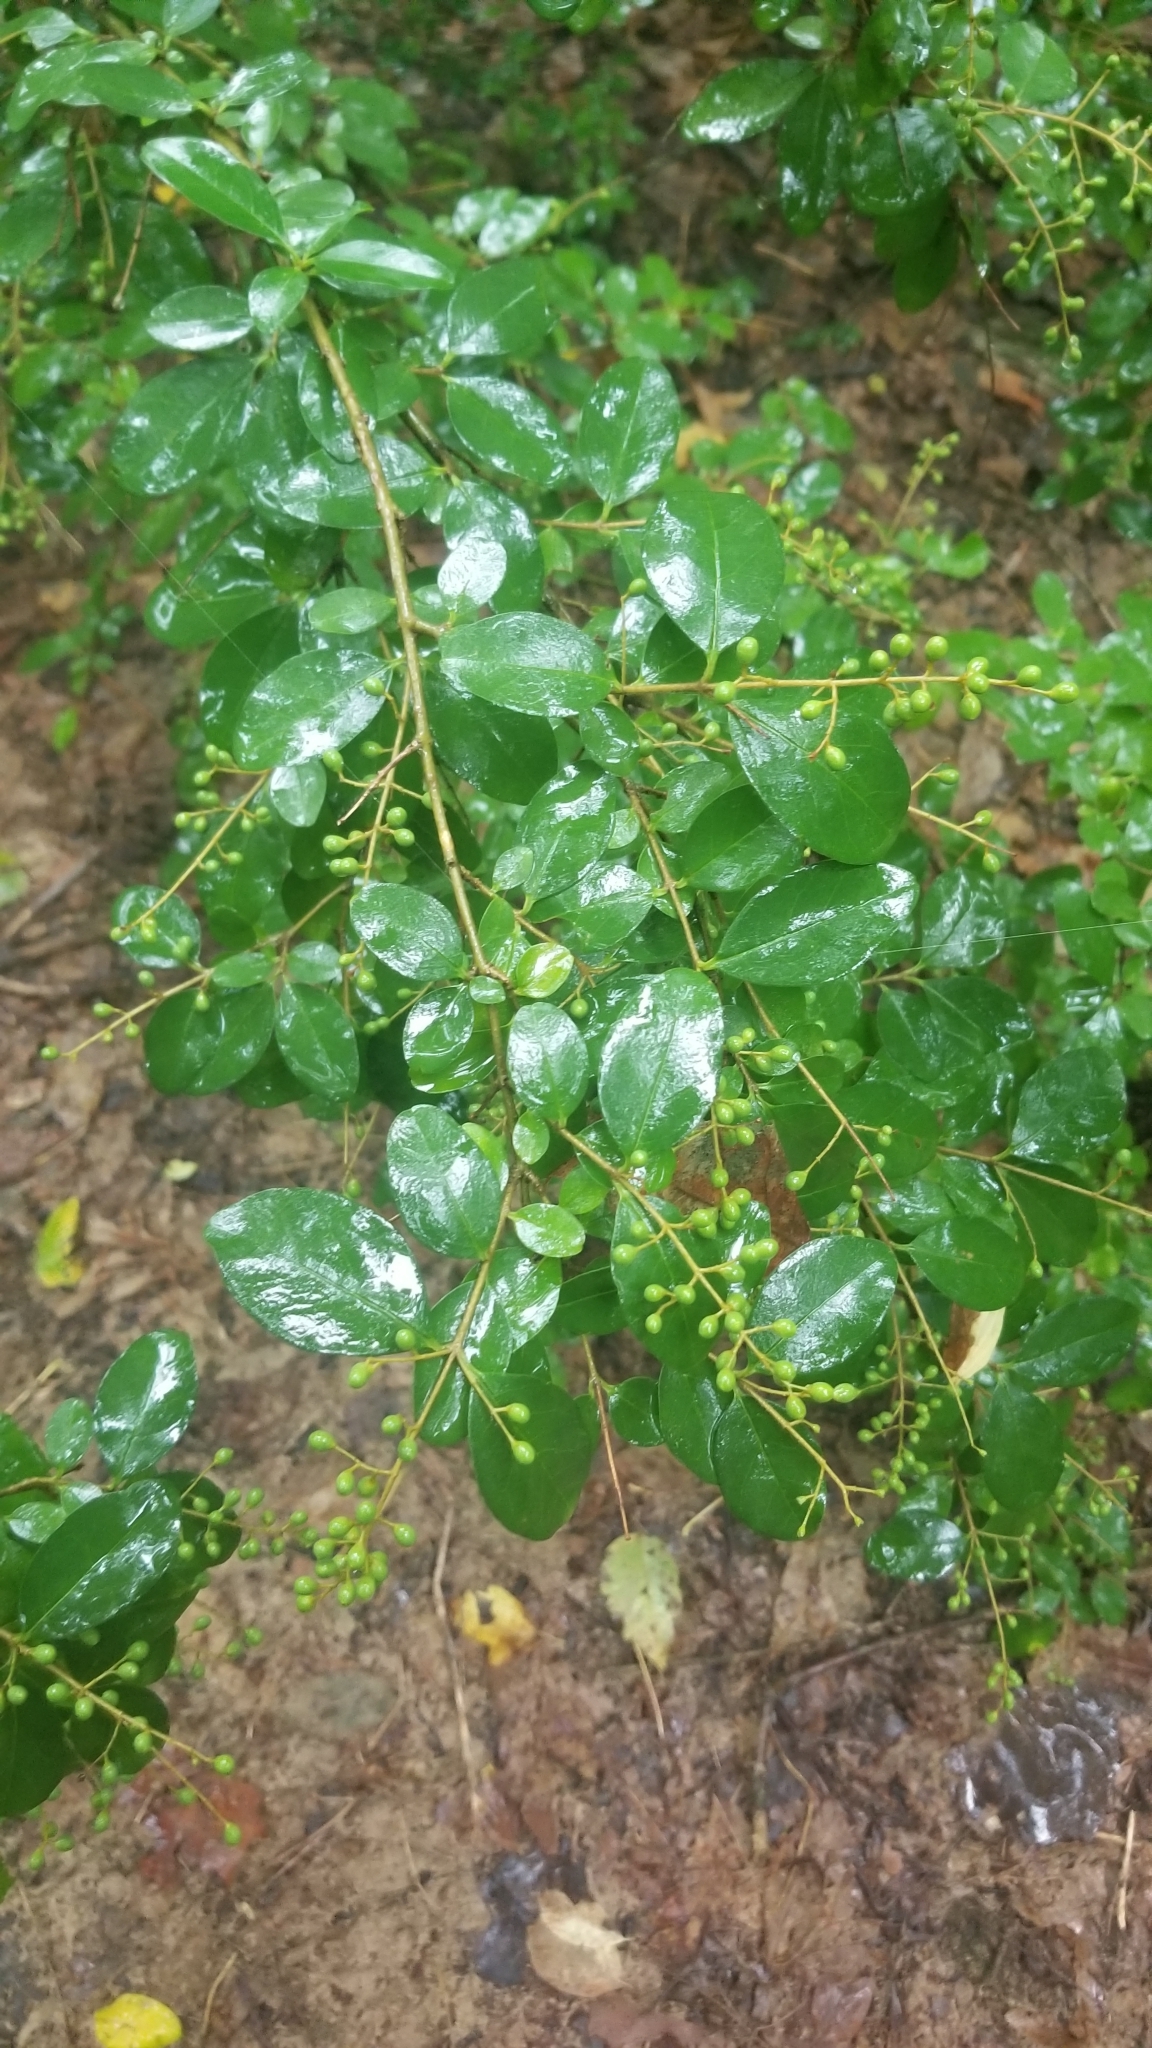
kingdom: Plantae
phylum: Tracheophyta
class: Magnoliopsida
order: Lamiales
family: Oleaceae
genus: Ligustrum
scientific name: Ligustrum sinense
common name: Chinese privet
